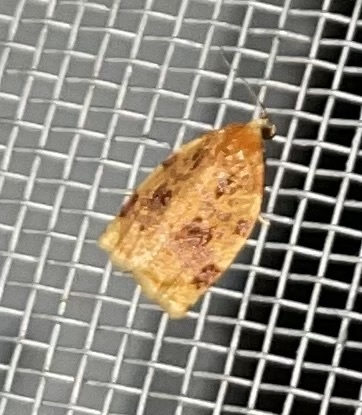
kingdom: Animalia
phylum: Arthropoda
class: Insecta
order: Lepidoptera
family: Tortricidae
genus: Archips
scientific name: Archips cerasivorana
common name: Uglynest caterpillar
